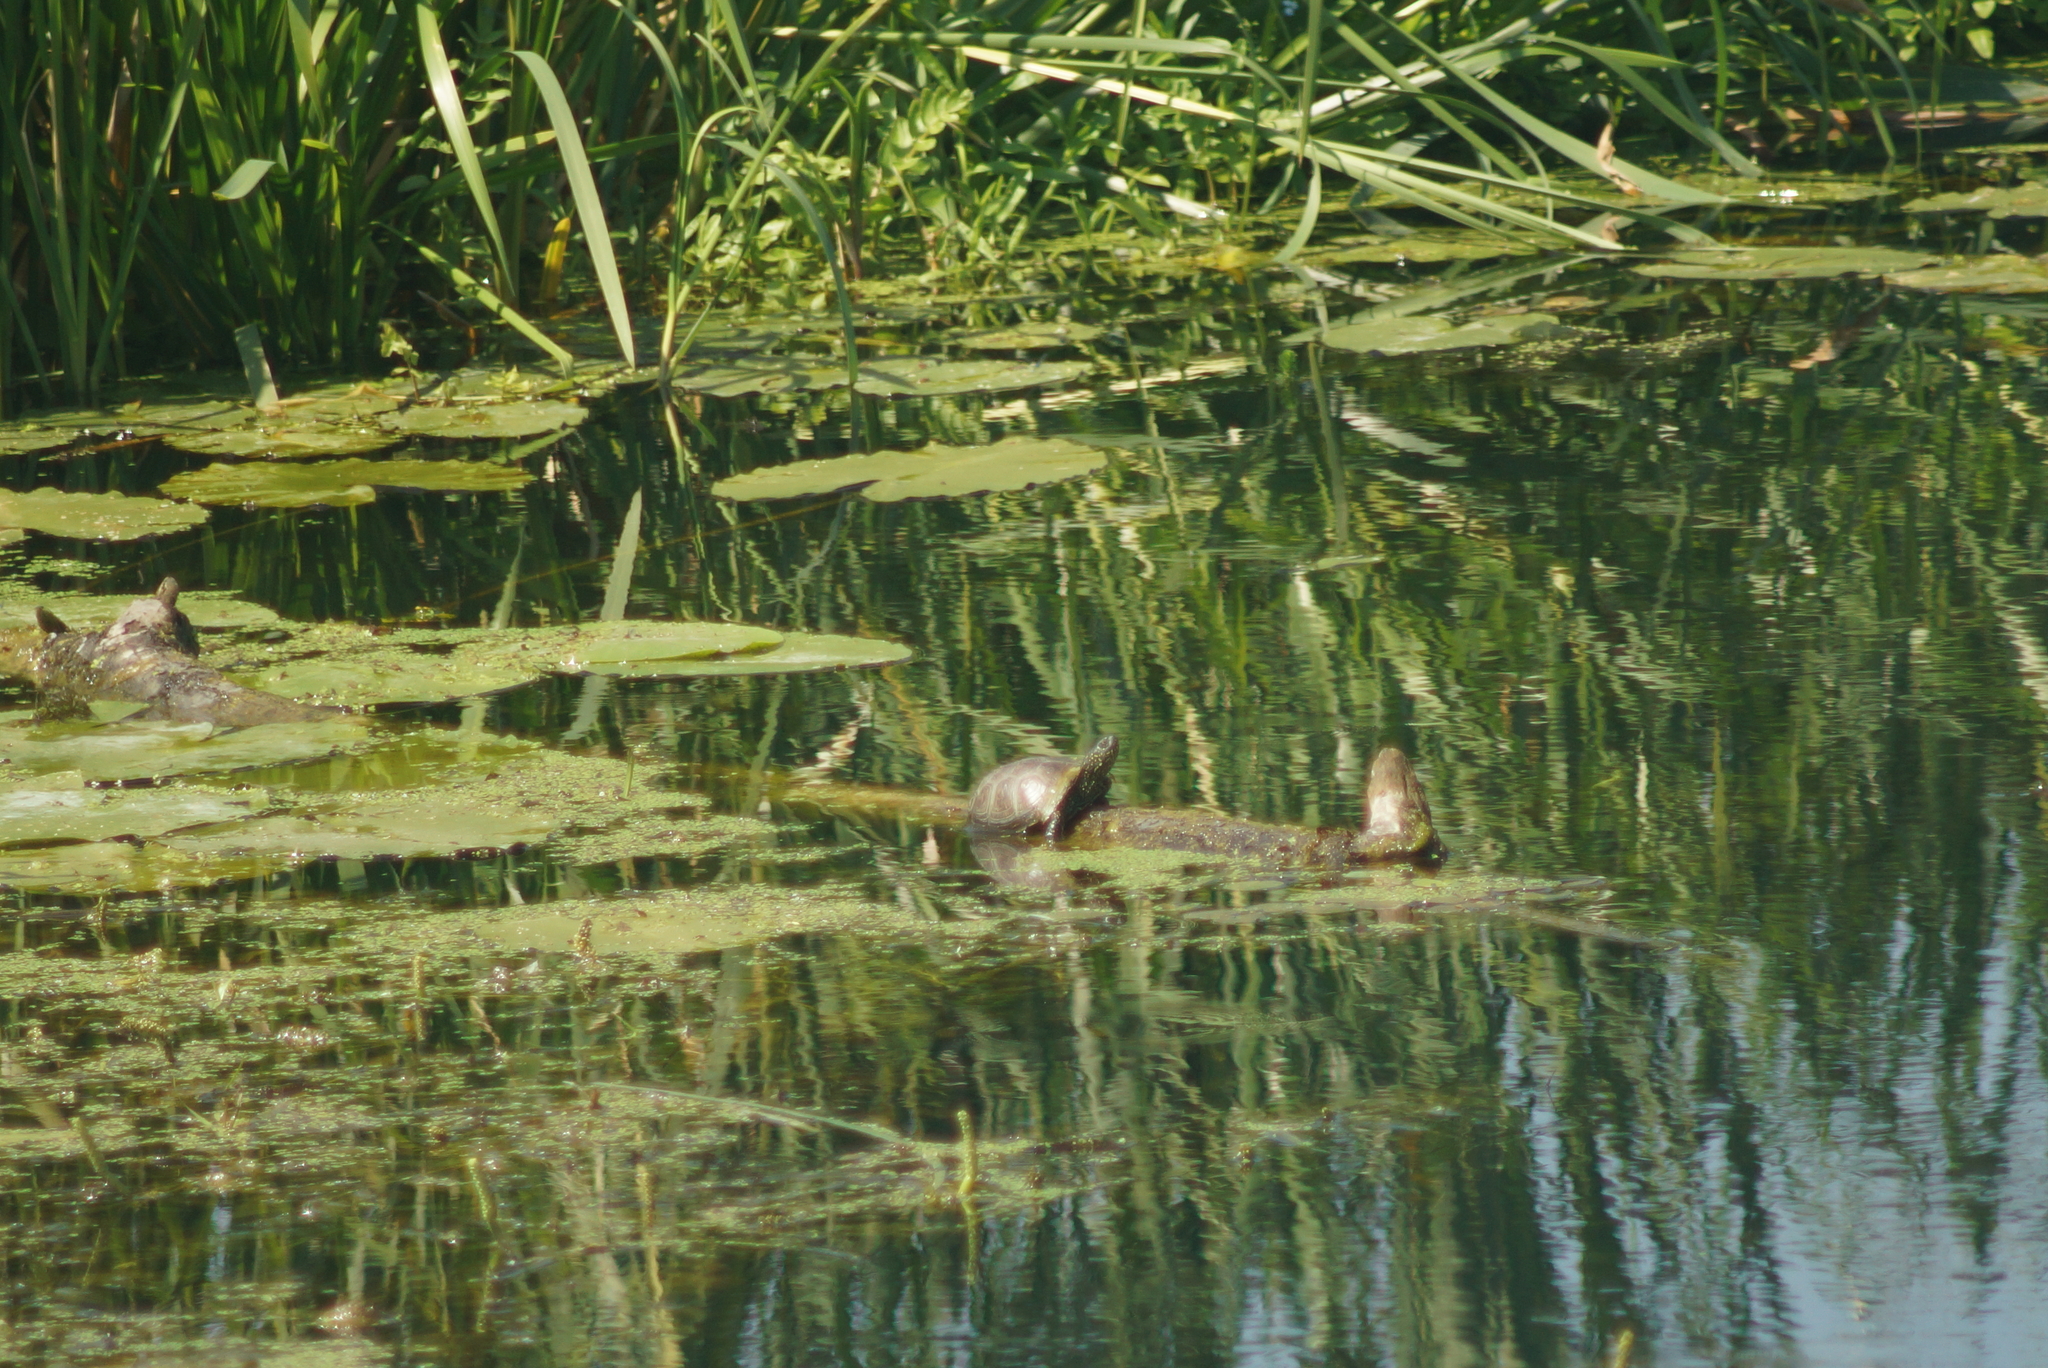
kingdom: Animalia
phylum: Chordata
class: Testudines
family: Emydidae
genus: Emys
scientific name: Emys orbicularis
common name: European pond turtle
